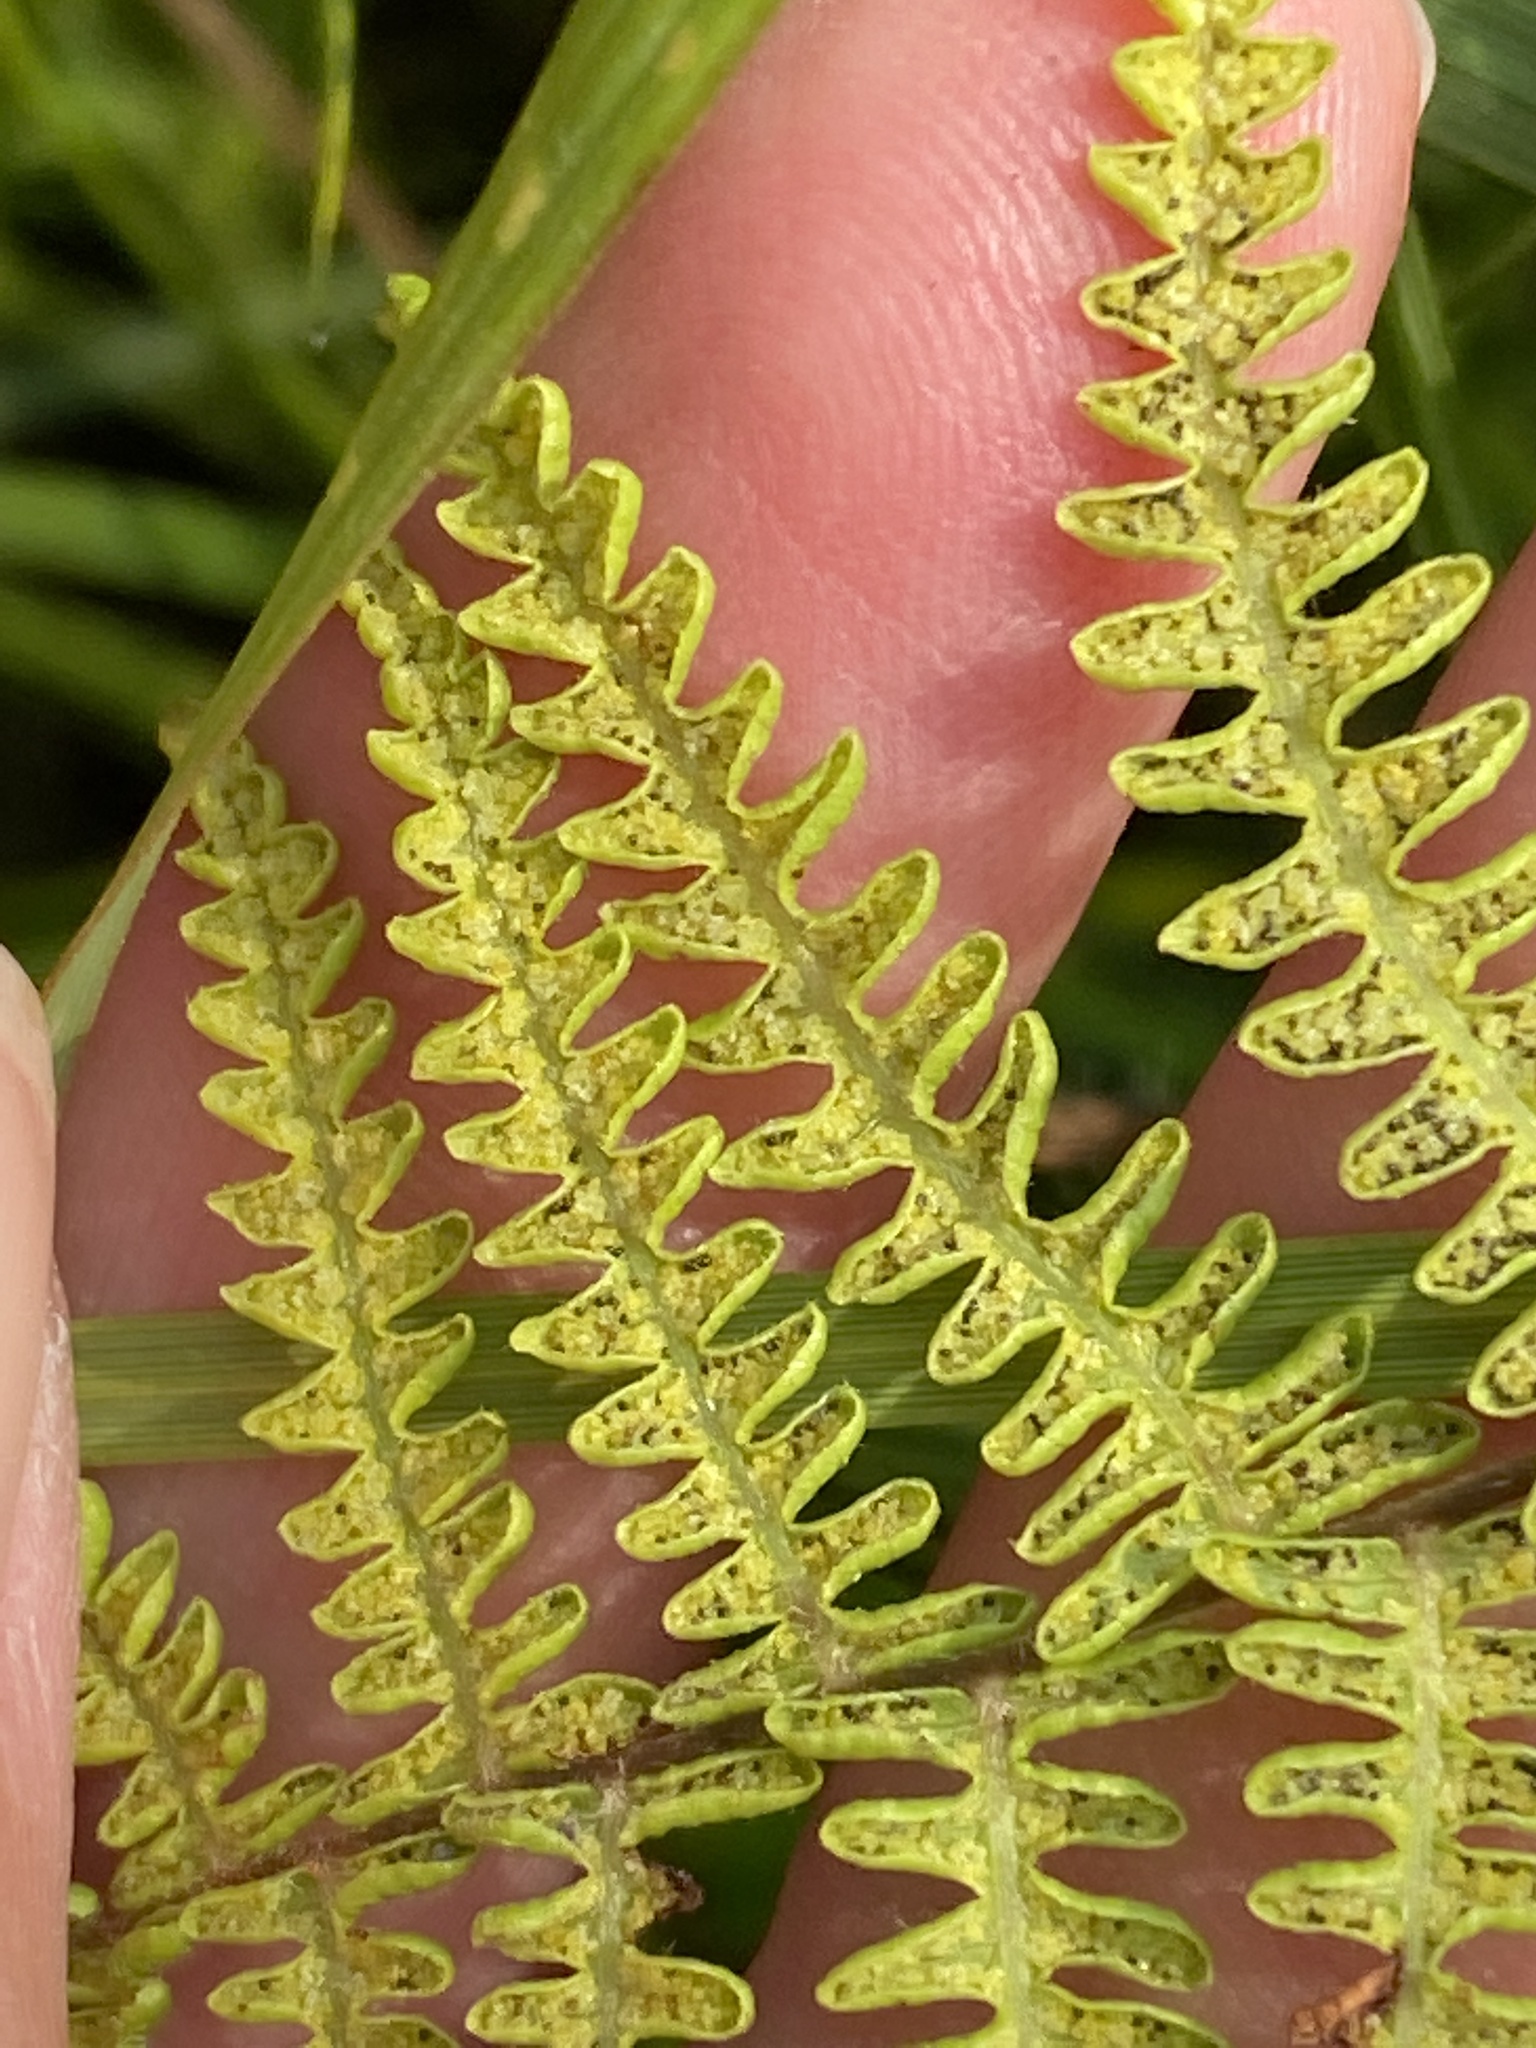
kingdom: Plantae
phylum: Tracheophyta
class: Polypodiopsida
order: Polypodiales
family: Thelypteridaceae
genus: Thelypteris
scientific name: Thelypteris palustris
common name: Marsh fern
